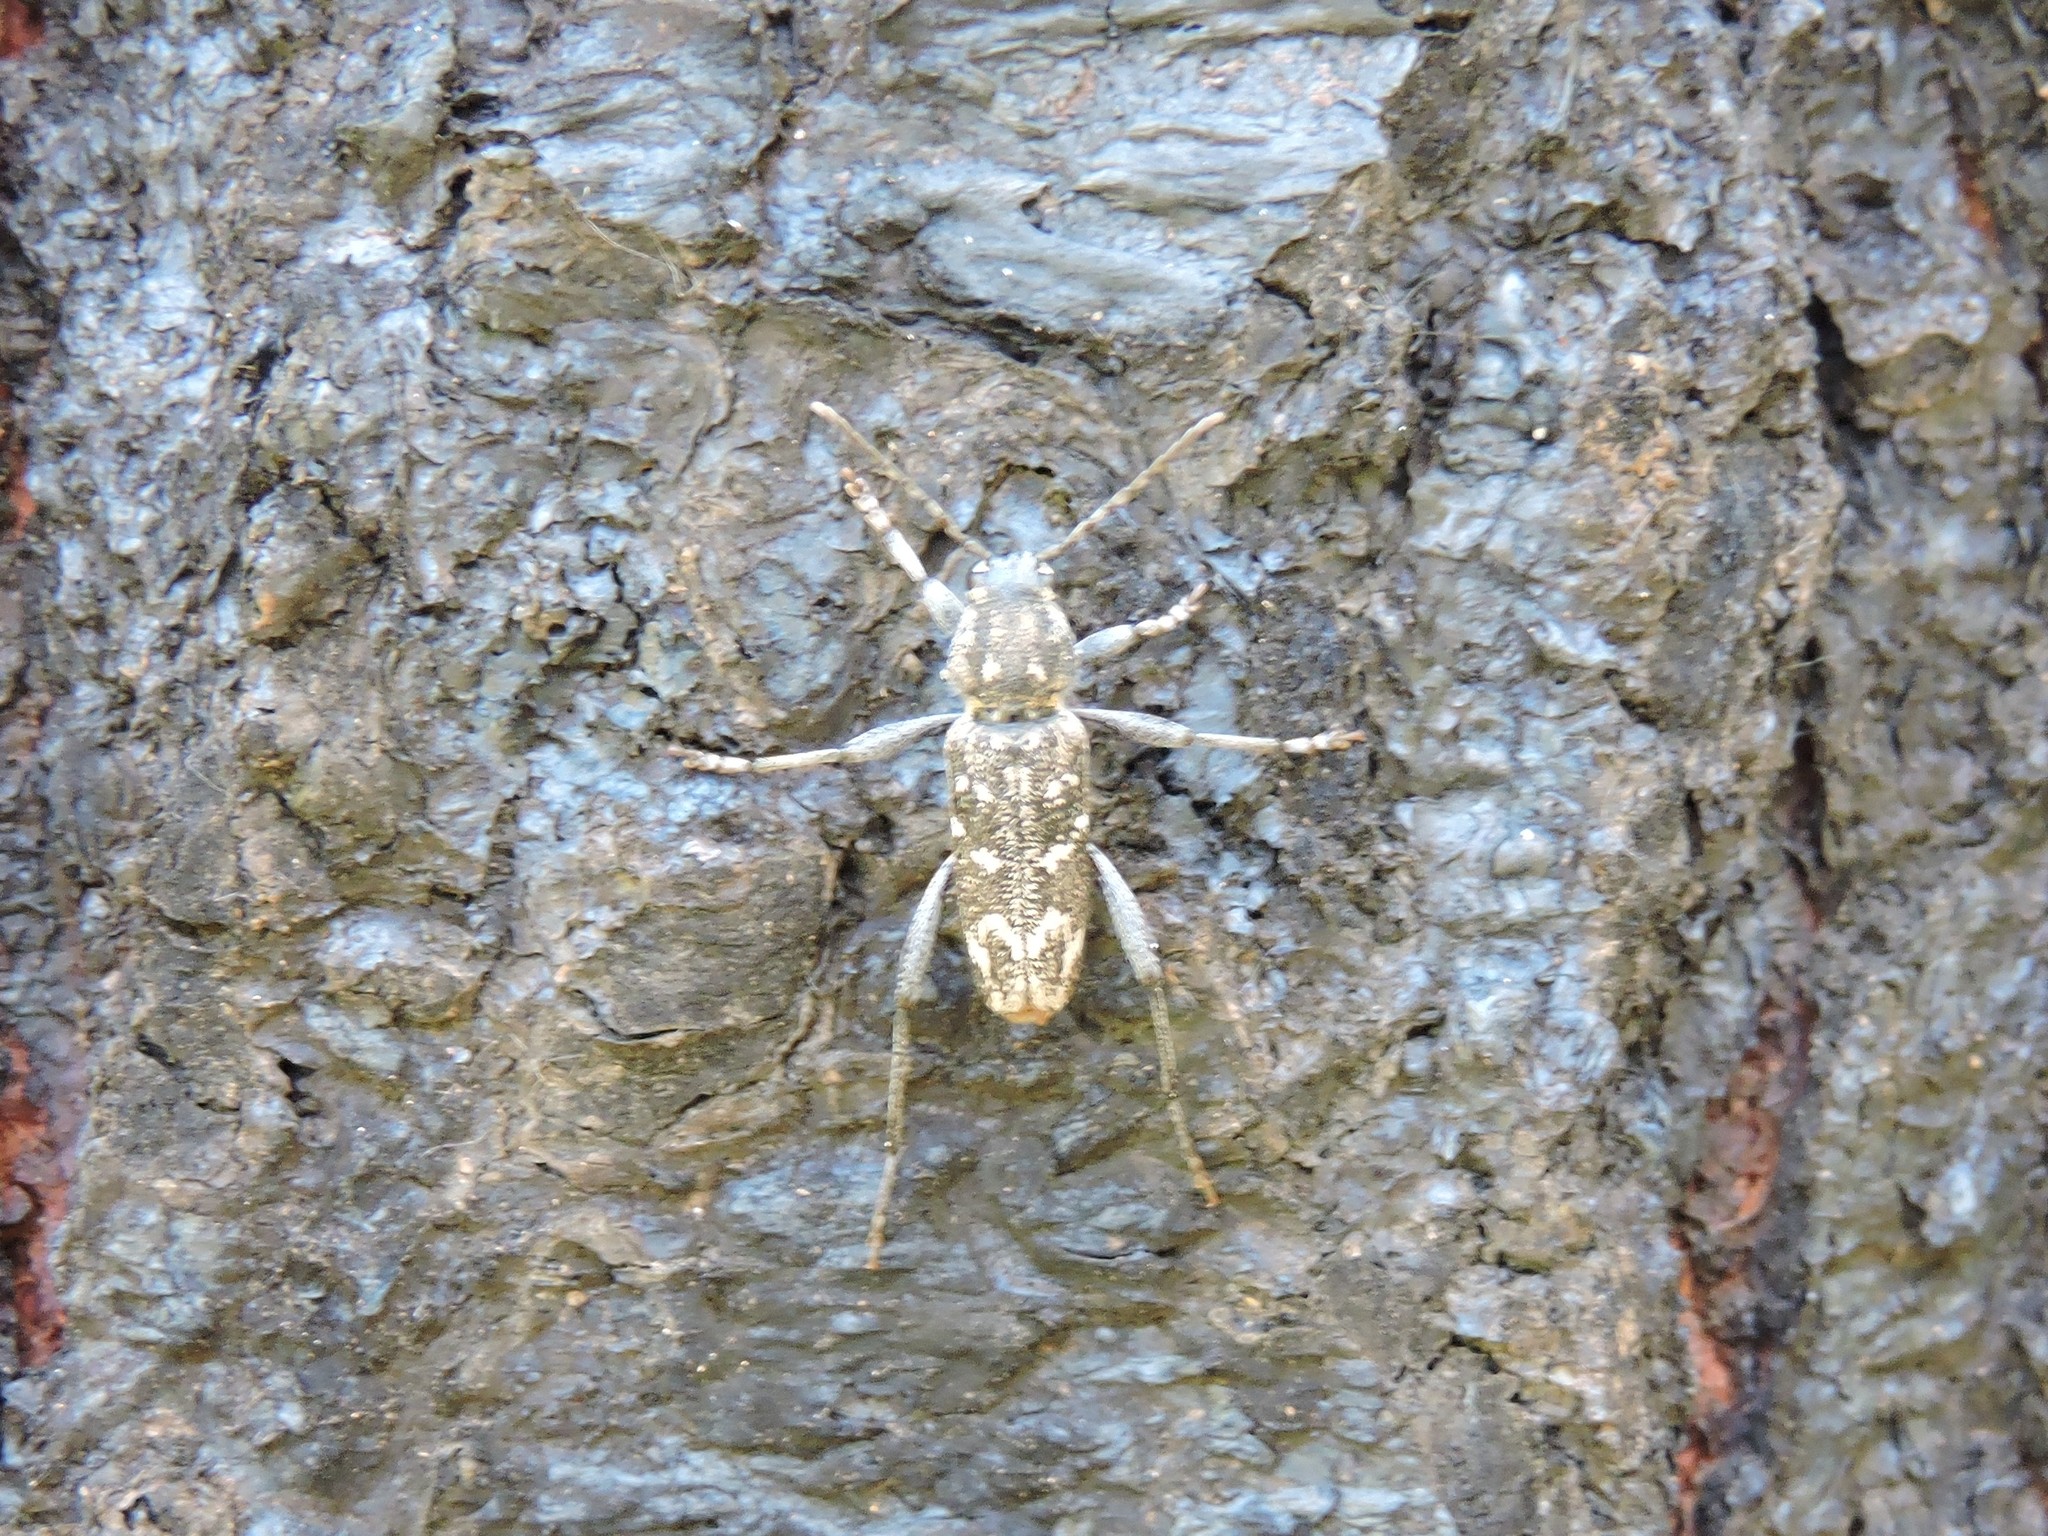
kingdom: Animalia
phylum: Arthropoda
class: Insecta
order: Coleoptera
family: Cerambycidae
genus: Xylotrechus
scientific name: Xylotrechus rusticus
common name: Grey tiger long-horned beetle
